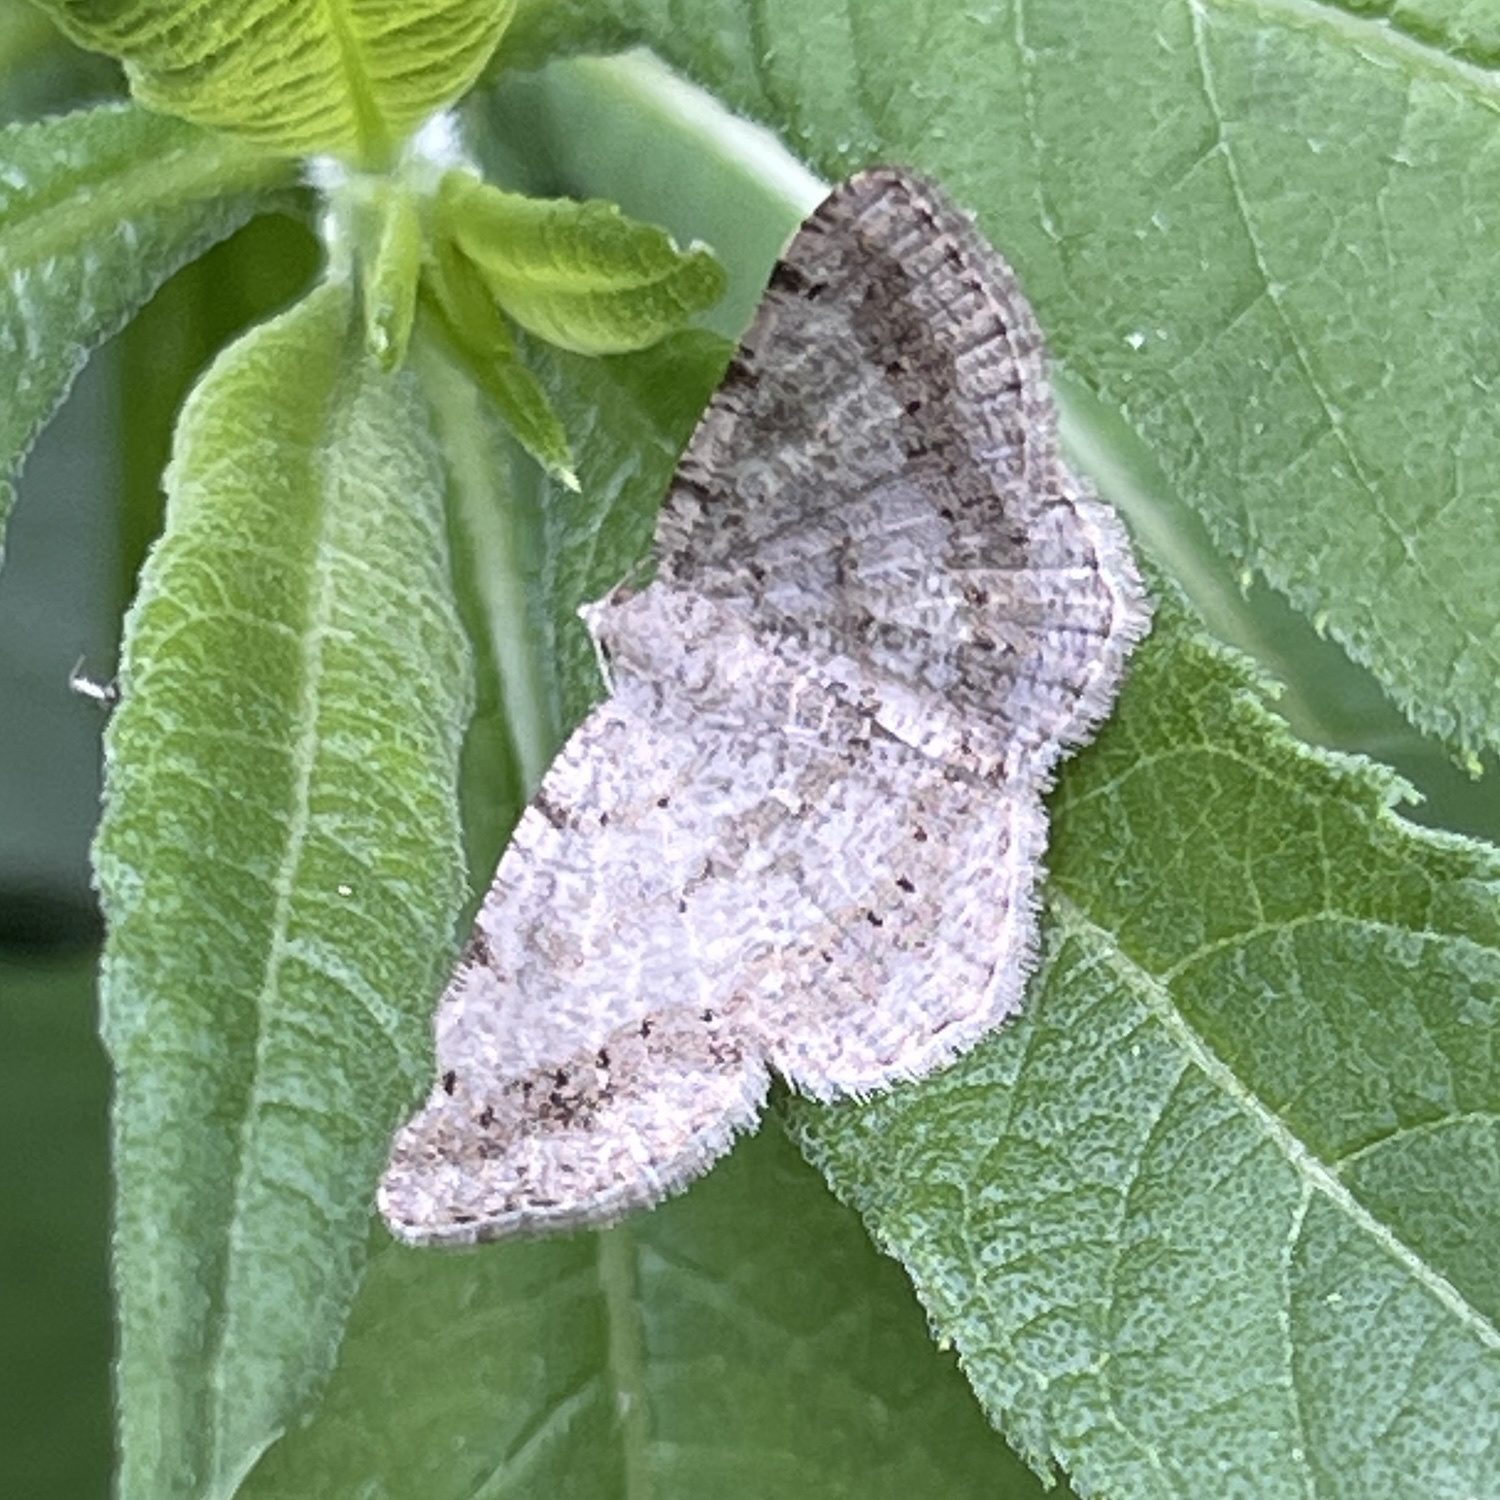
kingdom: Animalia
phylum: Arthropoda
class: Insecta
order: Lepidoptera
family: Geometridae
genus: Digrammia
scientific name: Digrammia ocellinata
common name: Faint-spotted angle
